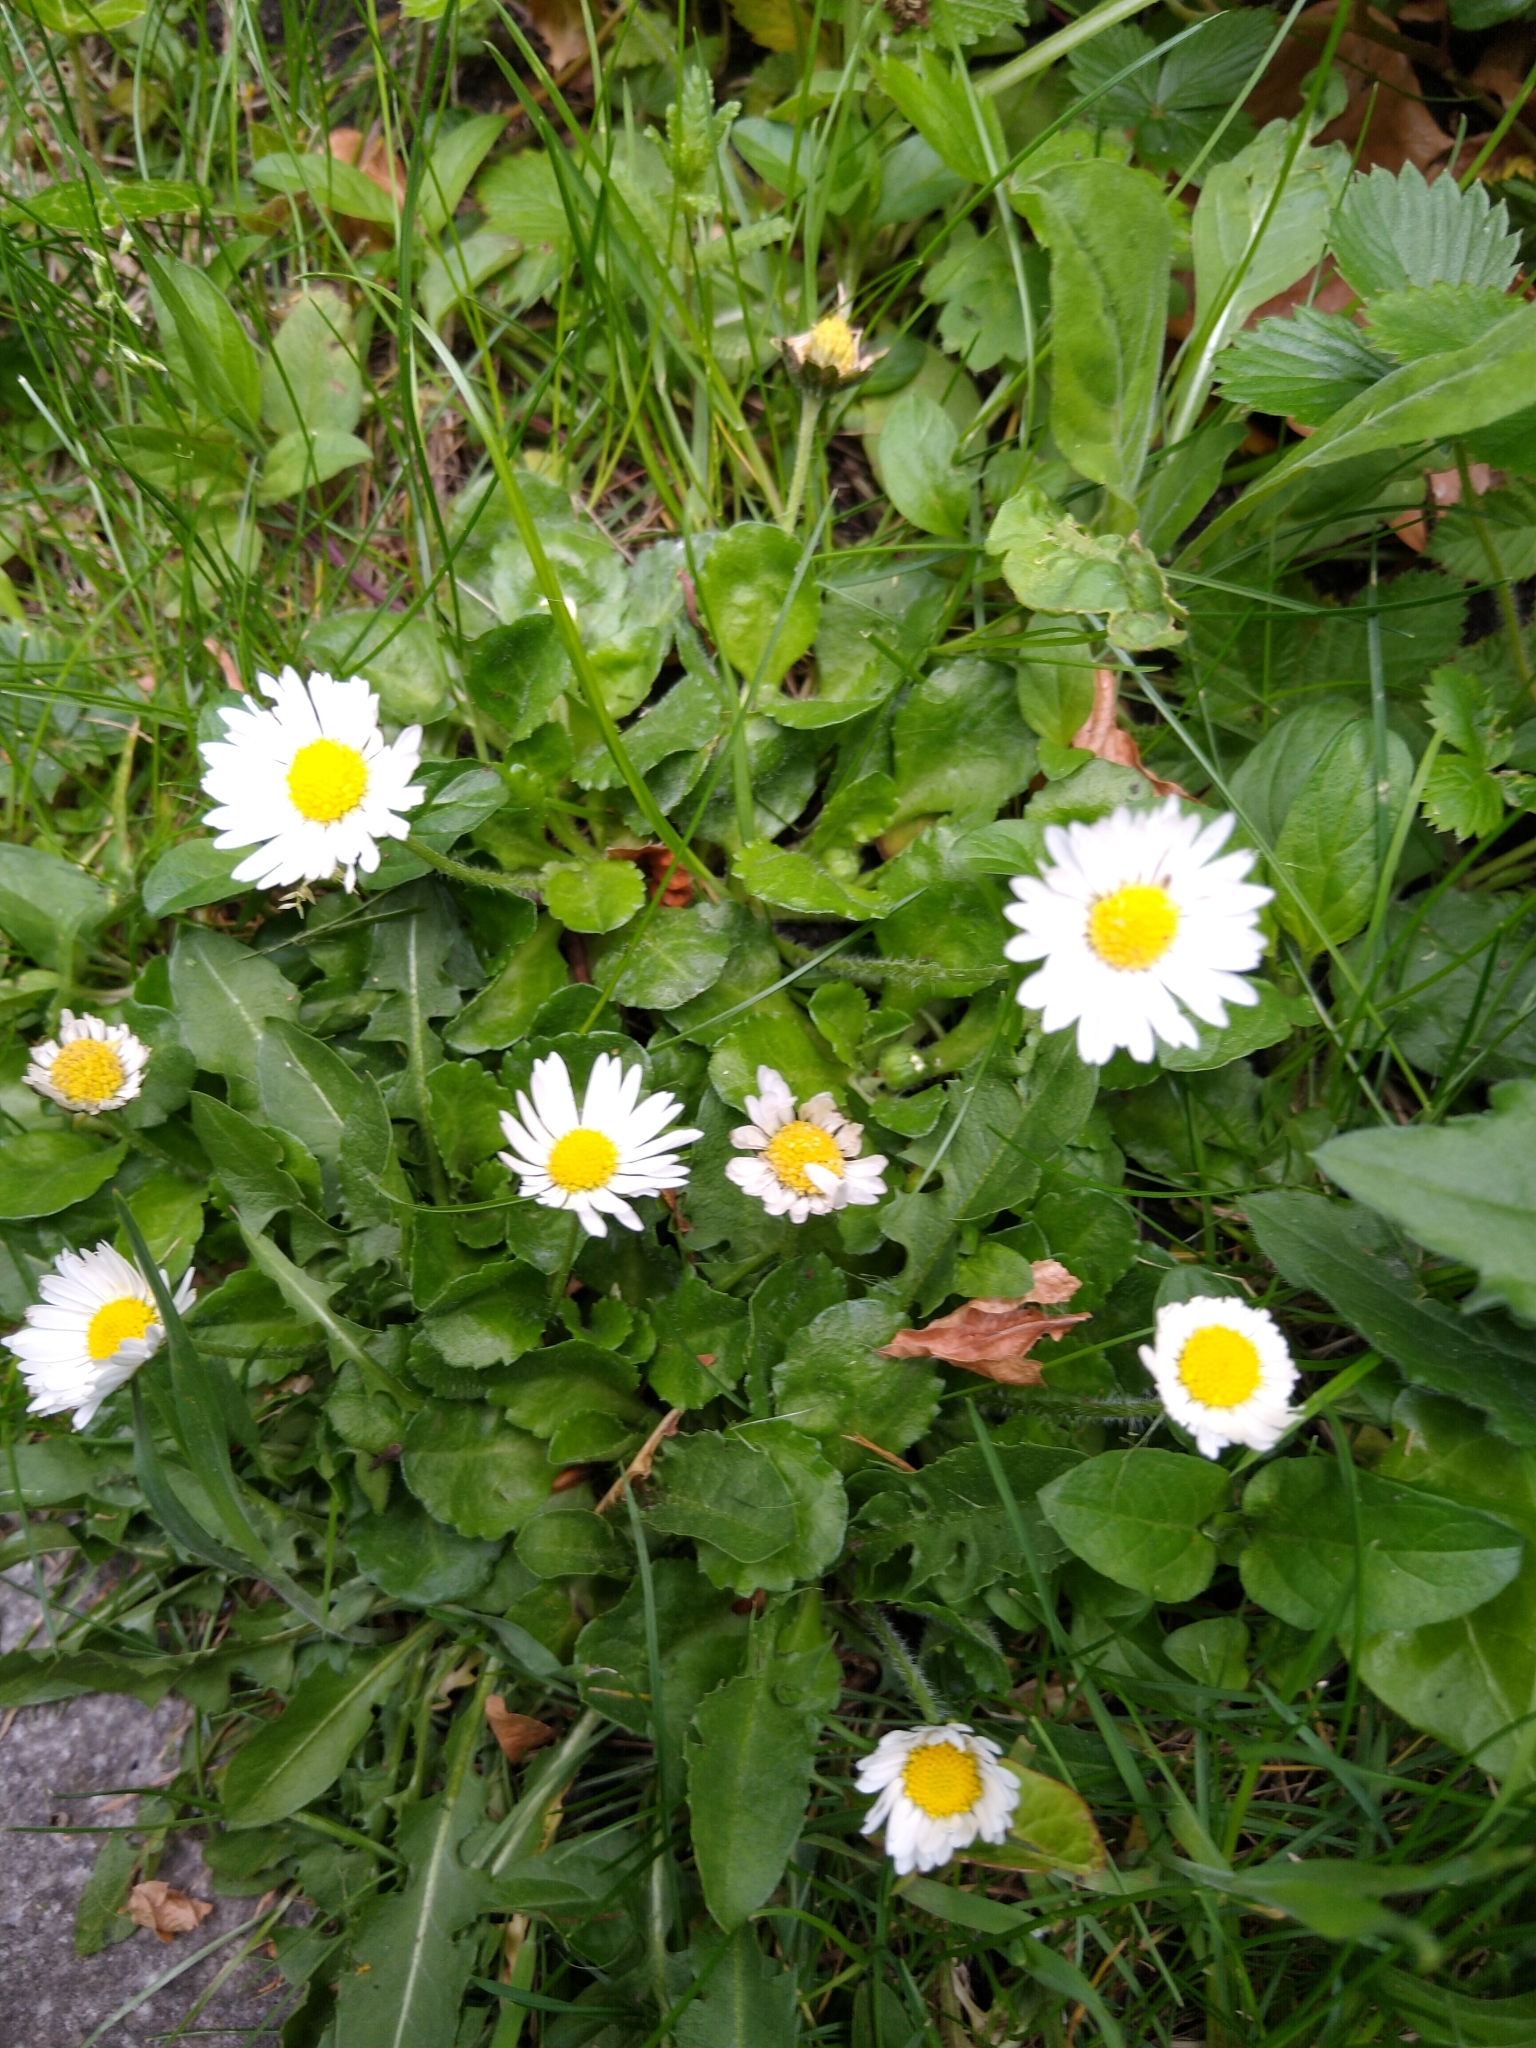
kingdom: Plantae
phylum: Tracheophyta
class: Magnoliopsida
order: Asterales
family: Asteraceae
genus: Bellis
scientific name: Bellis perennis
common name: Lawndaisy
